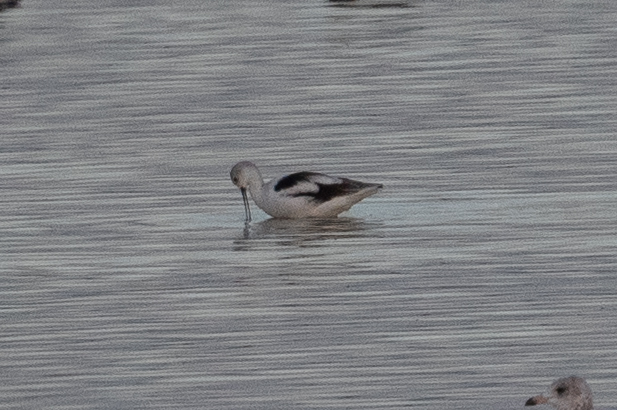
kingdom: Animalia
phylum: Chordata
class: Aves
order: Charadriiformes
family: Recurvirostridae
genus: Recurvirostra
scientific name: Recurvirostra americana
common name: American avocet
